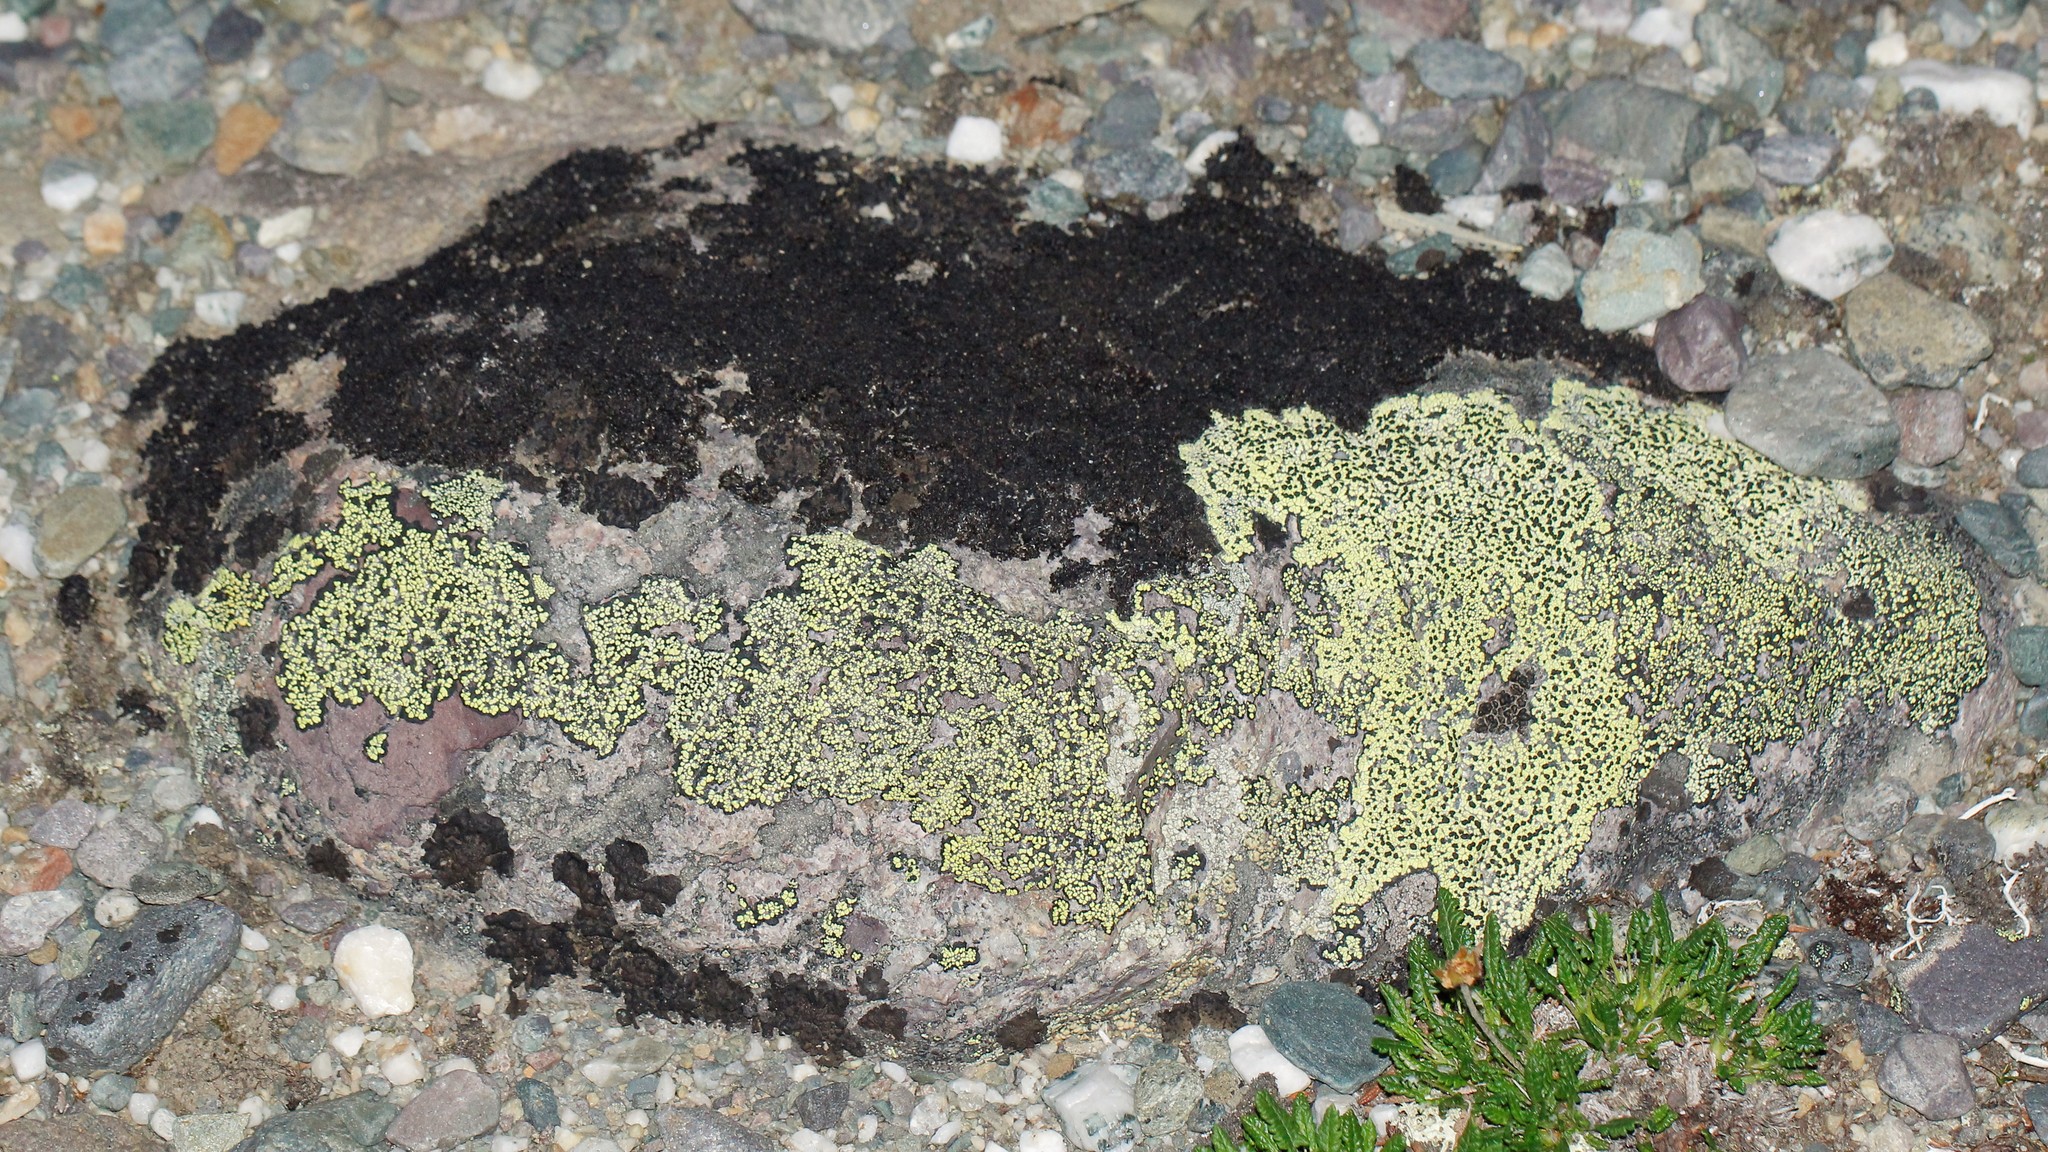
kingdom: Fungi
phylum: Ascomycota
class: Lecanoromycetes
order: Rhizocarpales
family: Rhizocarpaceae
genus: Rhizocarpon
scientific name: Rhizocarpon geographicum
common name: Yellow map lichen
